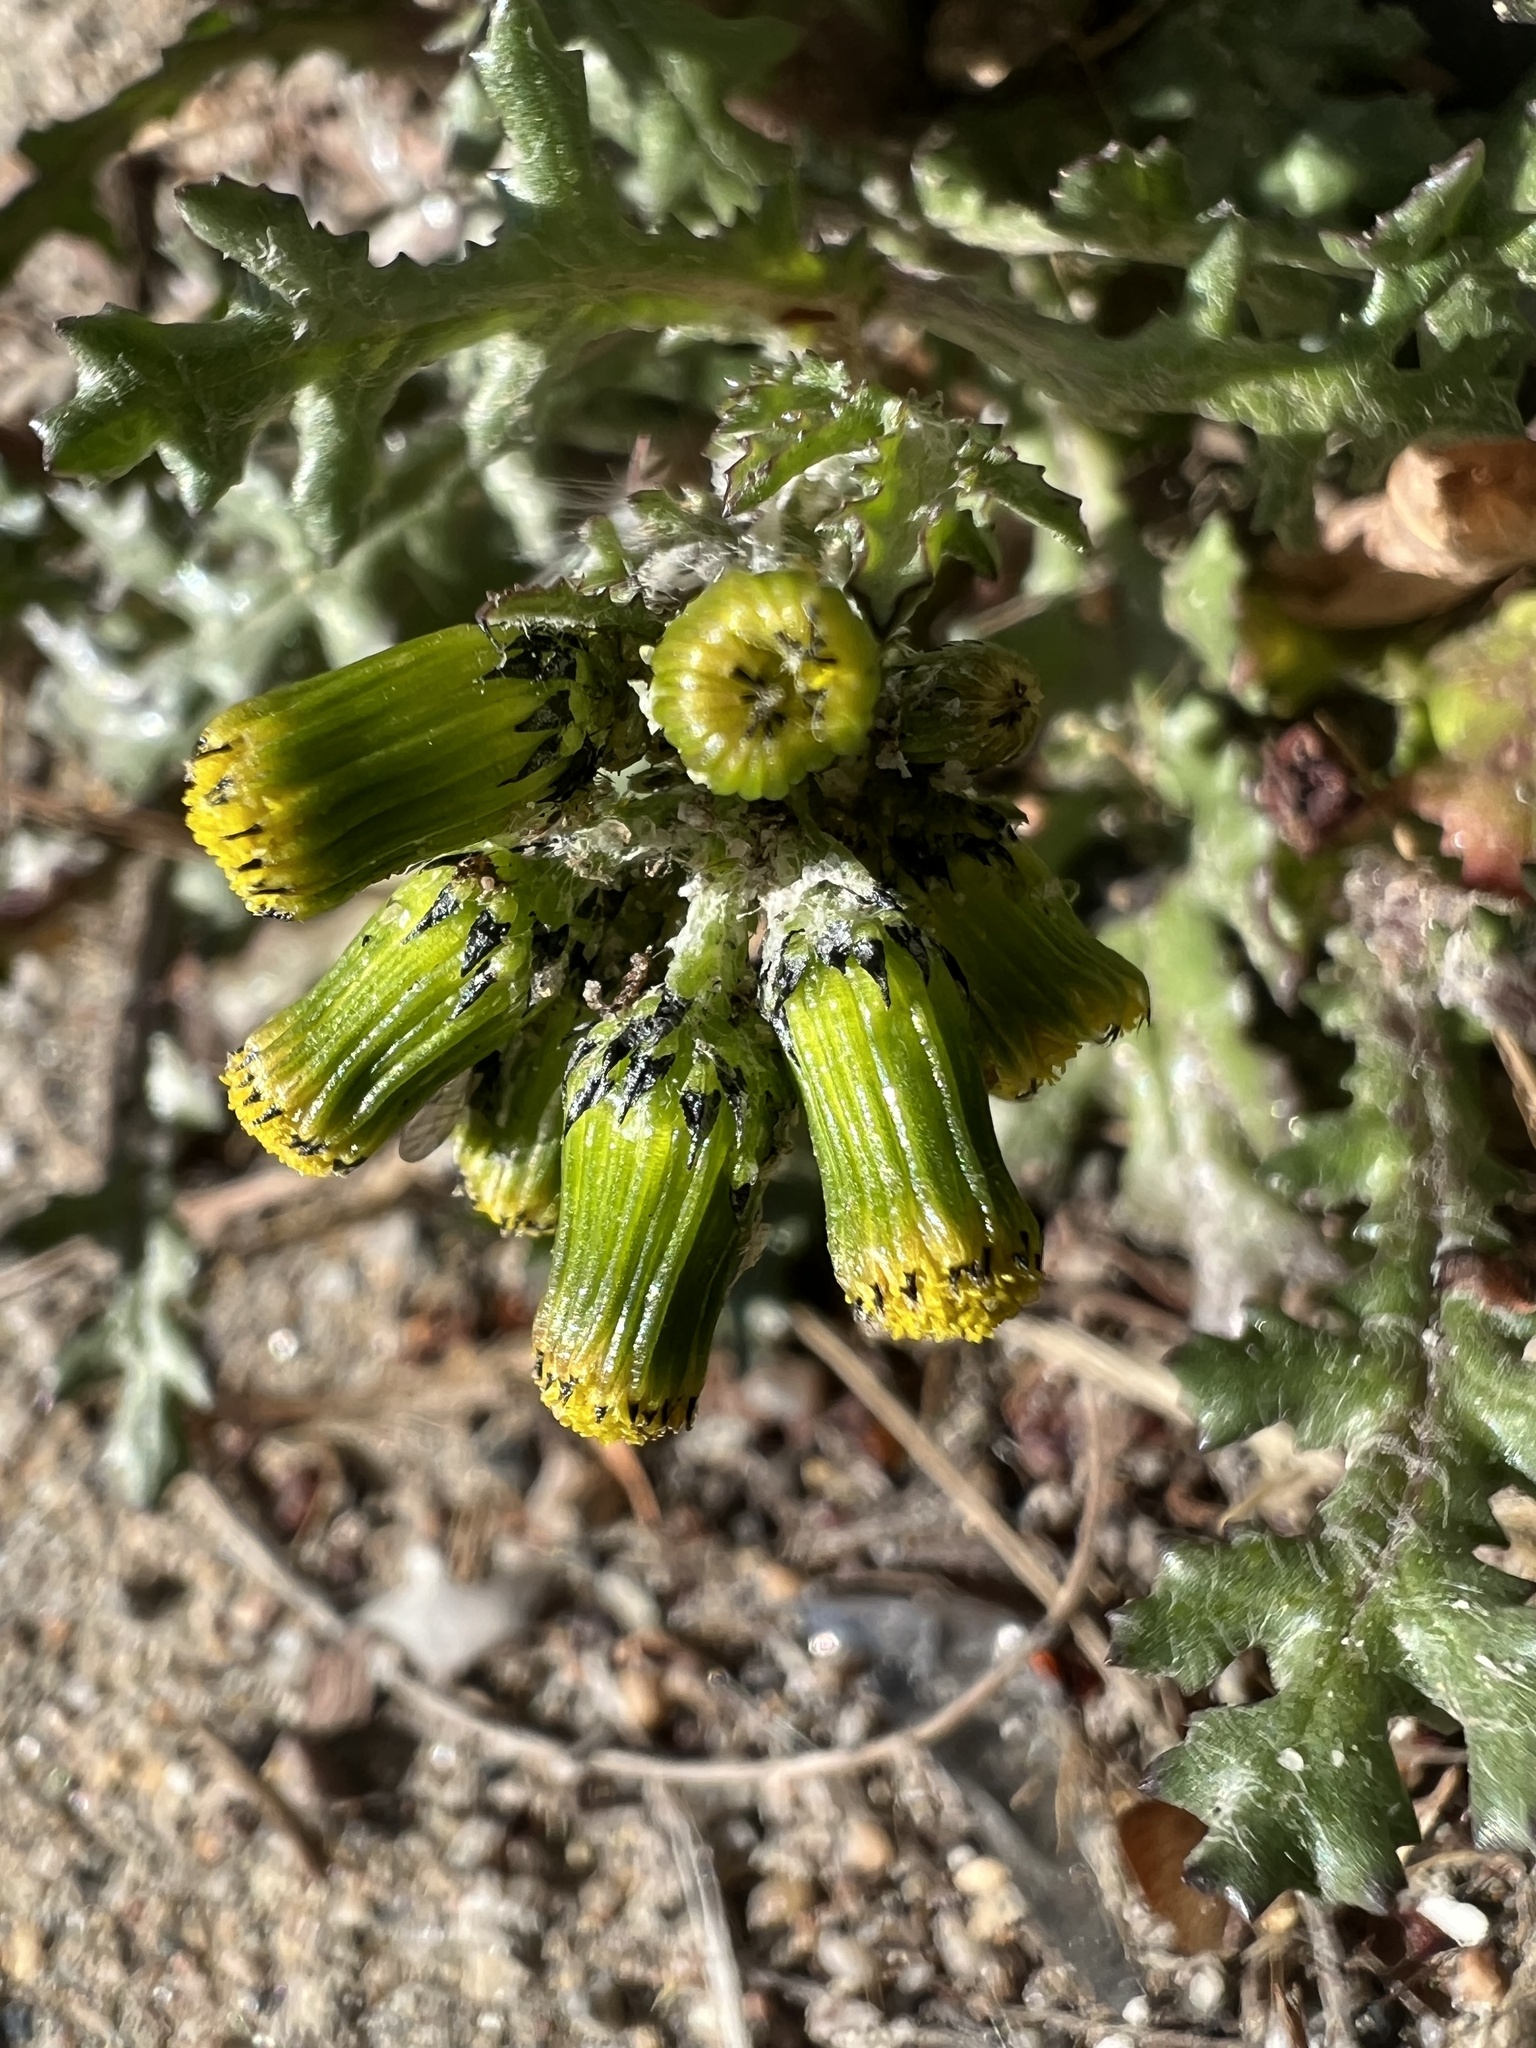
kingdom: Plantae
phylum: Tracheophyta
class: Magnoliopsida
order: Asterales
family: Asteraceae
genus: Senecio
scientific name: Senecio vulgaris
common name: Old-man-in-the-spring
